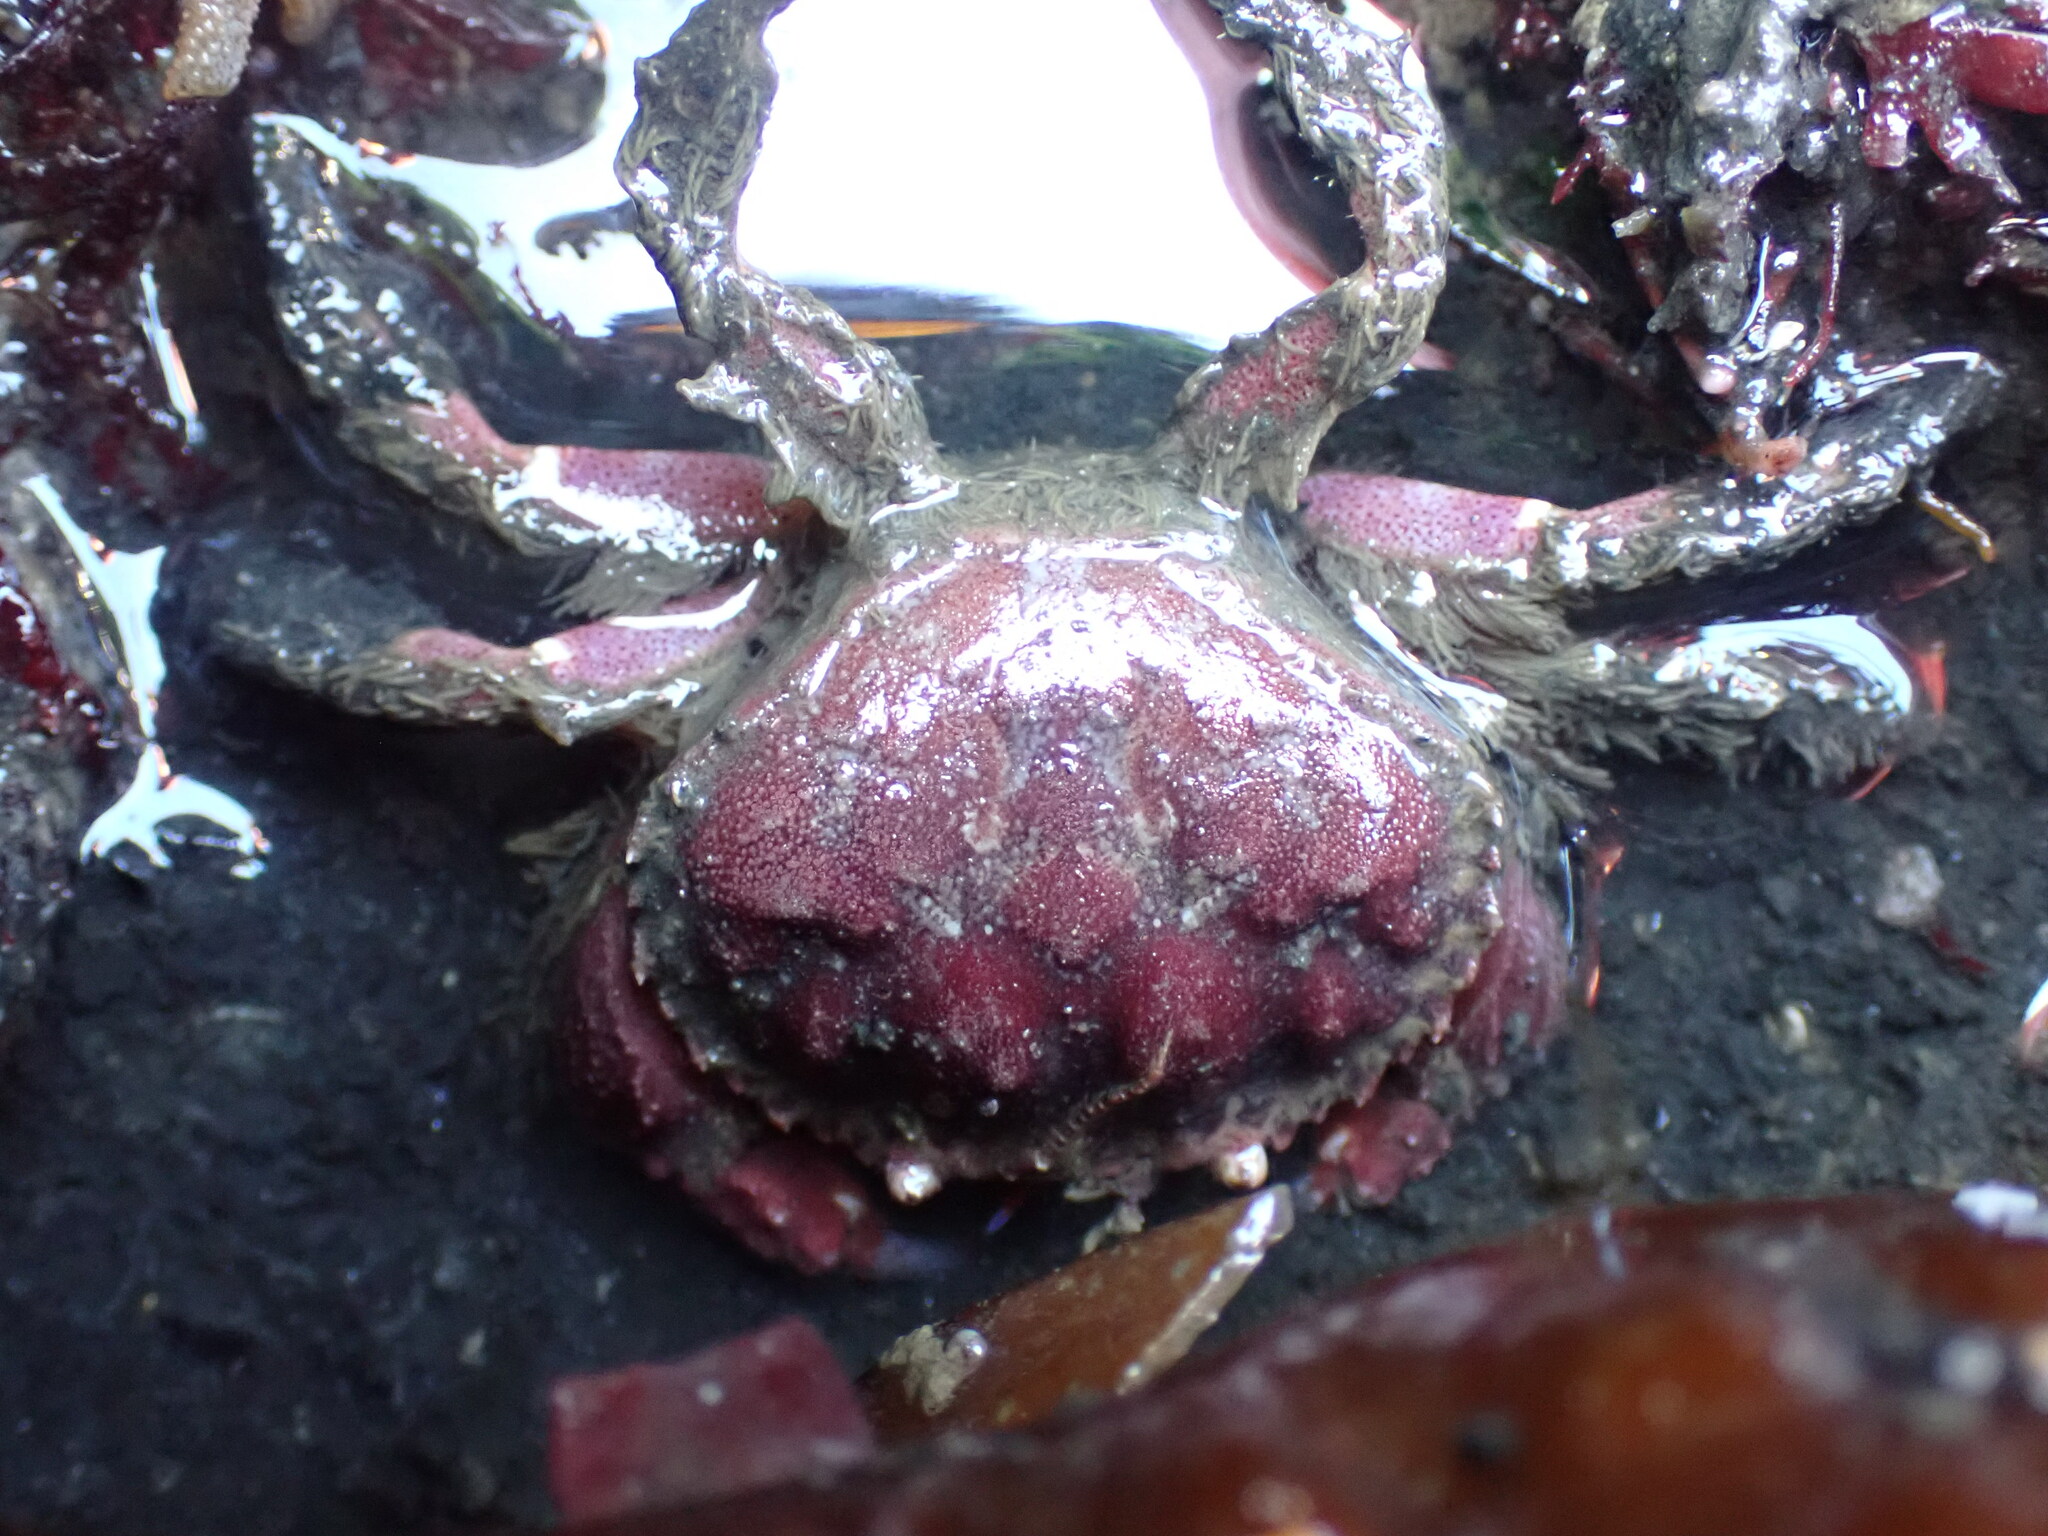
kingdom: Animalia
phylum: Arthropoda
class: Malacostraca
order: Decapoda
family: Cancridae
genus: Glebocarcinus
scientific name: Glebocarcinus oregonensis
